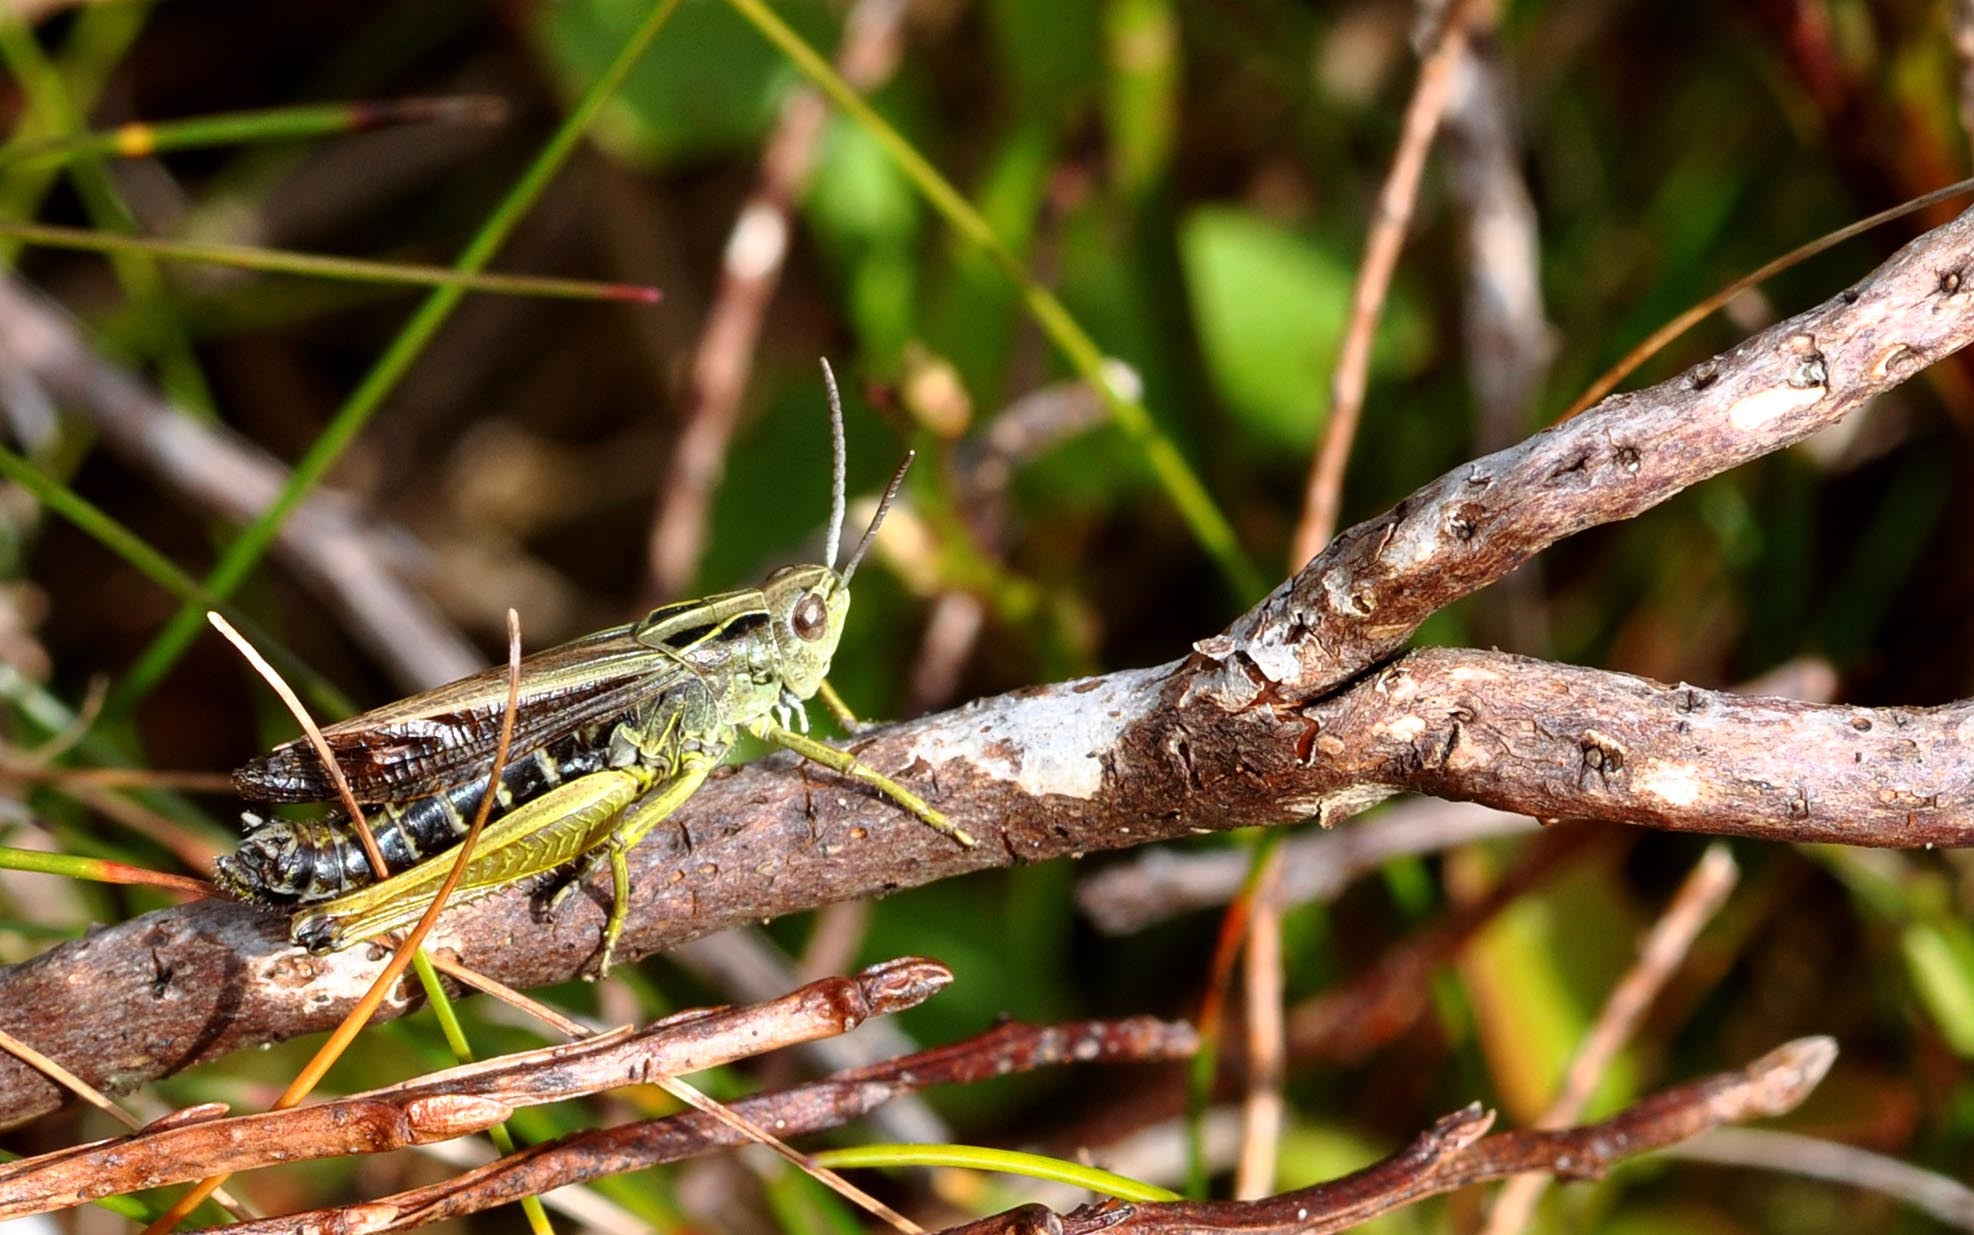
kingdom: Animalia
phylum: Arthropoda
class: Insecta
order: Orthoptera
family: Acrididae
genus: Omocestus
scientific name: Omocestus viridulus
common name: Common green grasshopper
